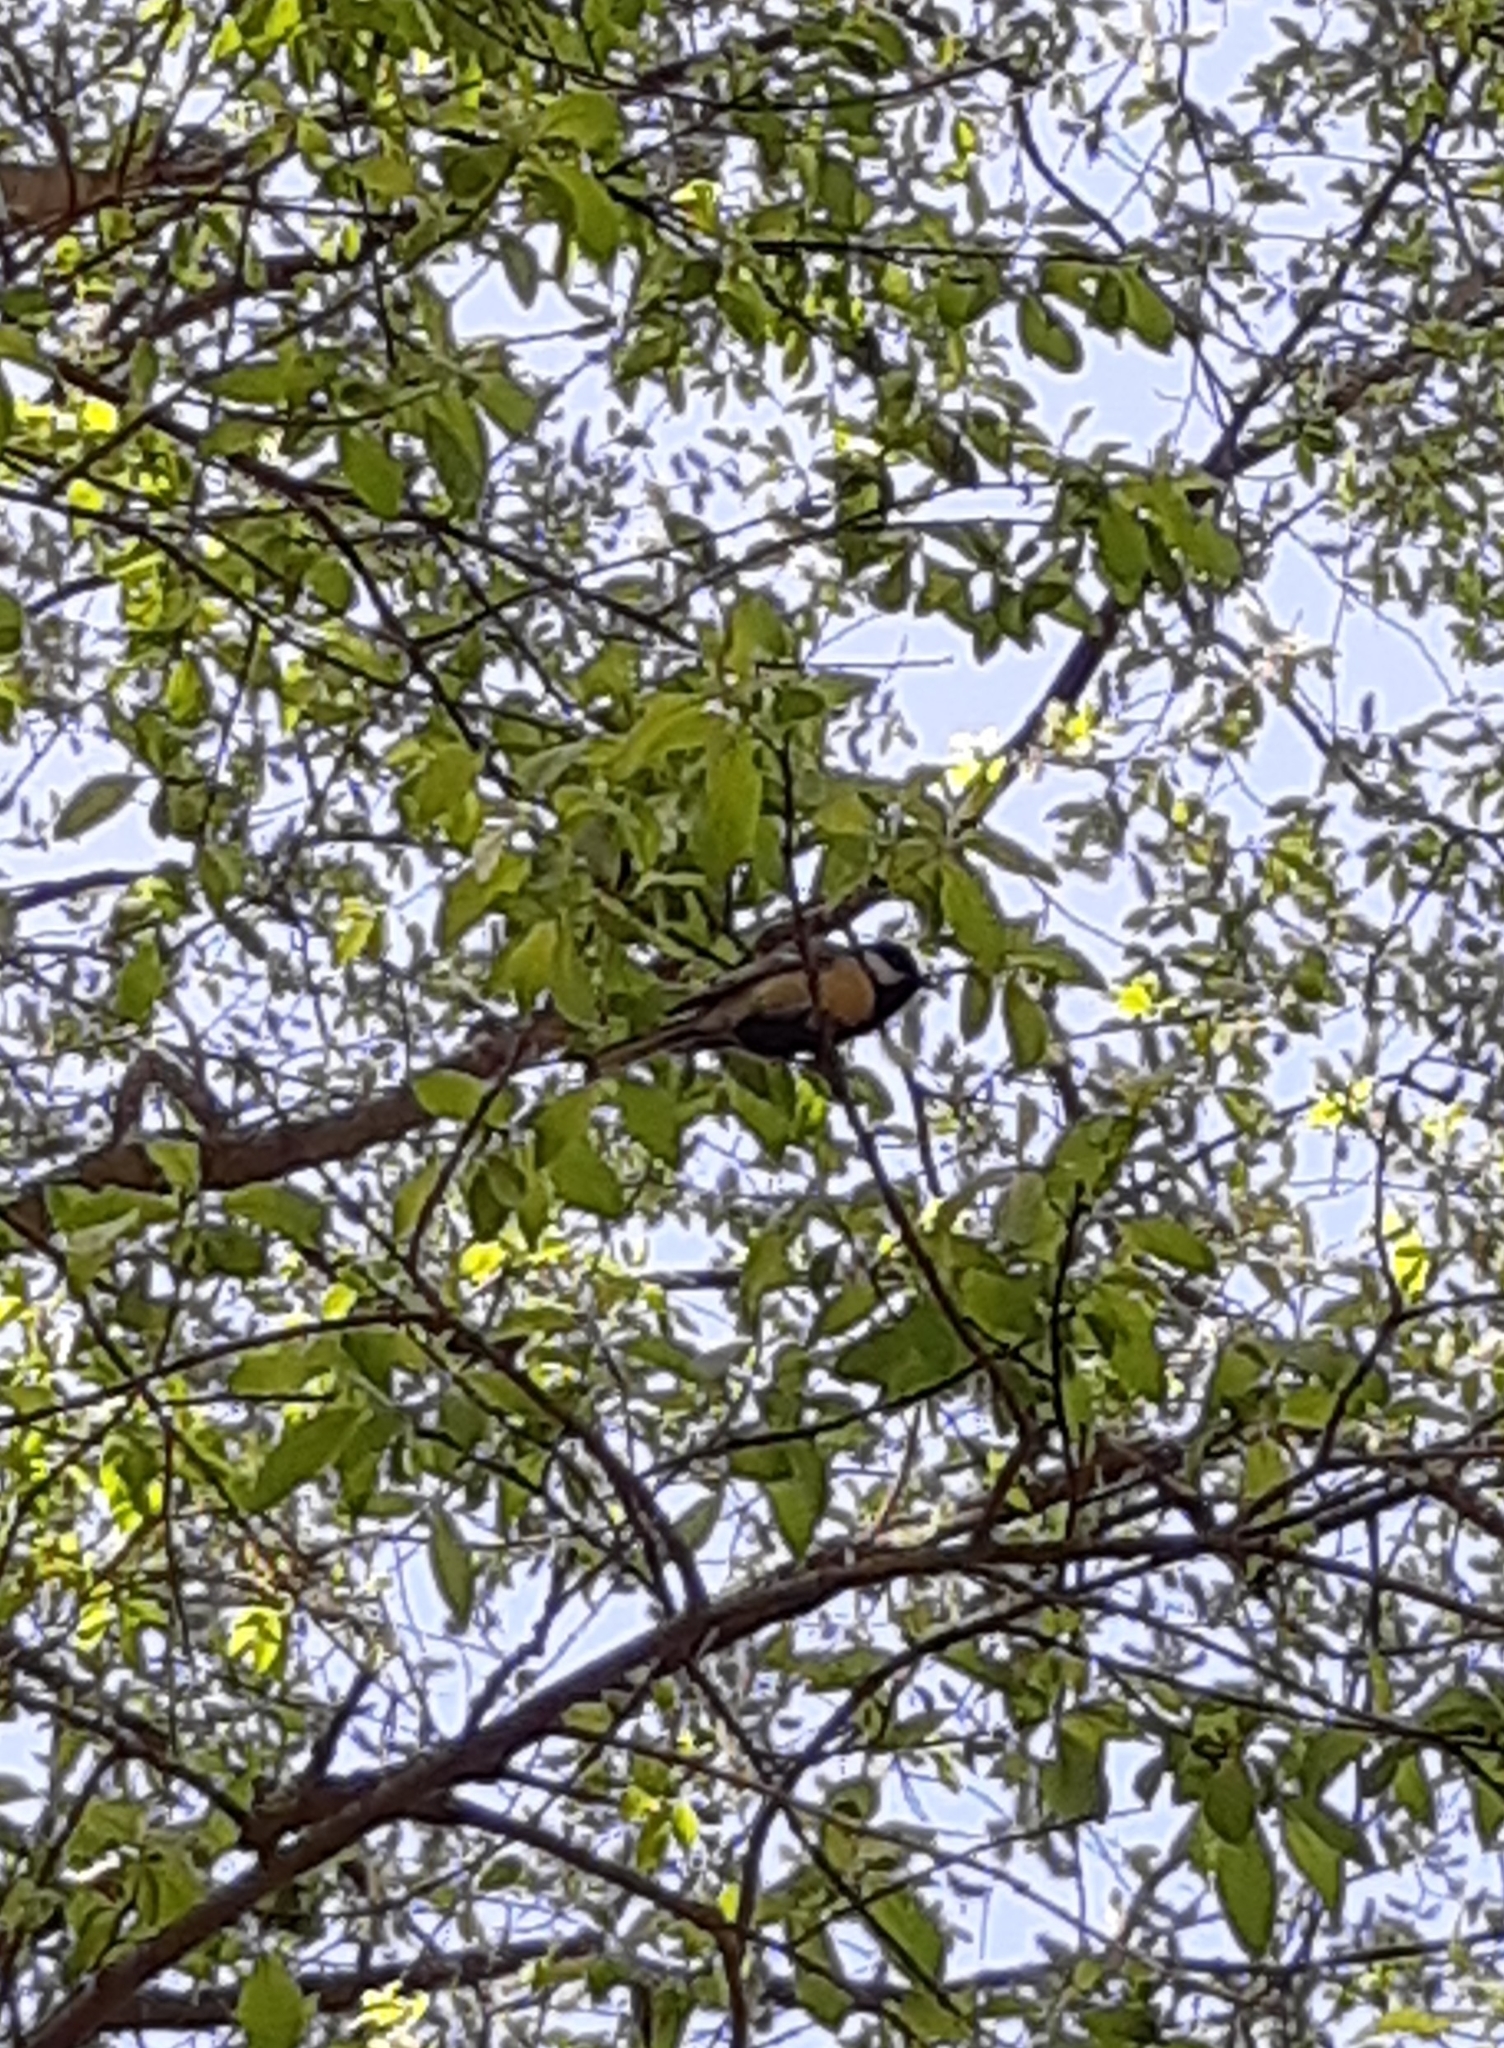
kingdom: Animalia
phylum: Chordata
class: Aves
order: Passeriformes
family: Paridae
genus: Parus
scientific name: Parus major
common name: Great tit
